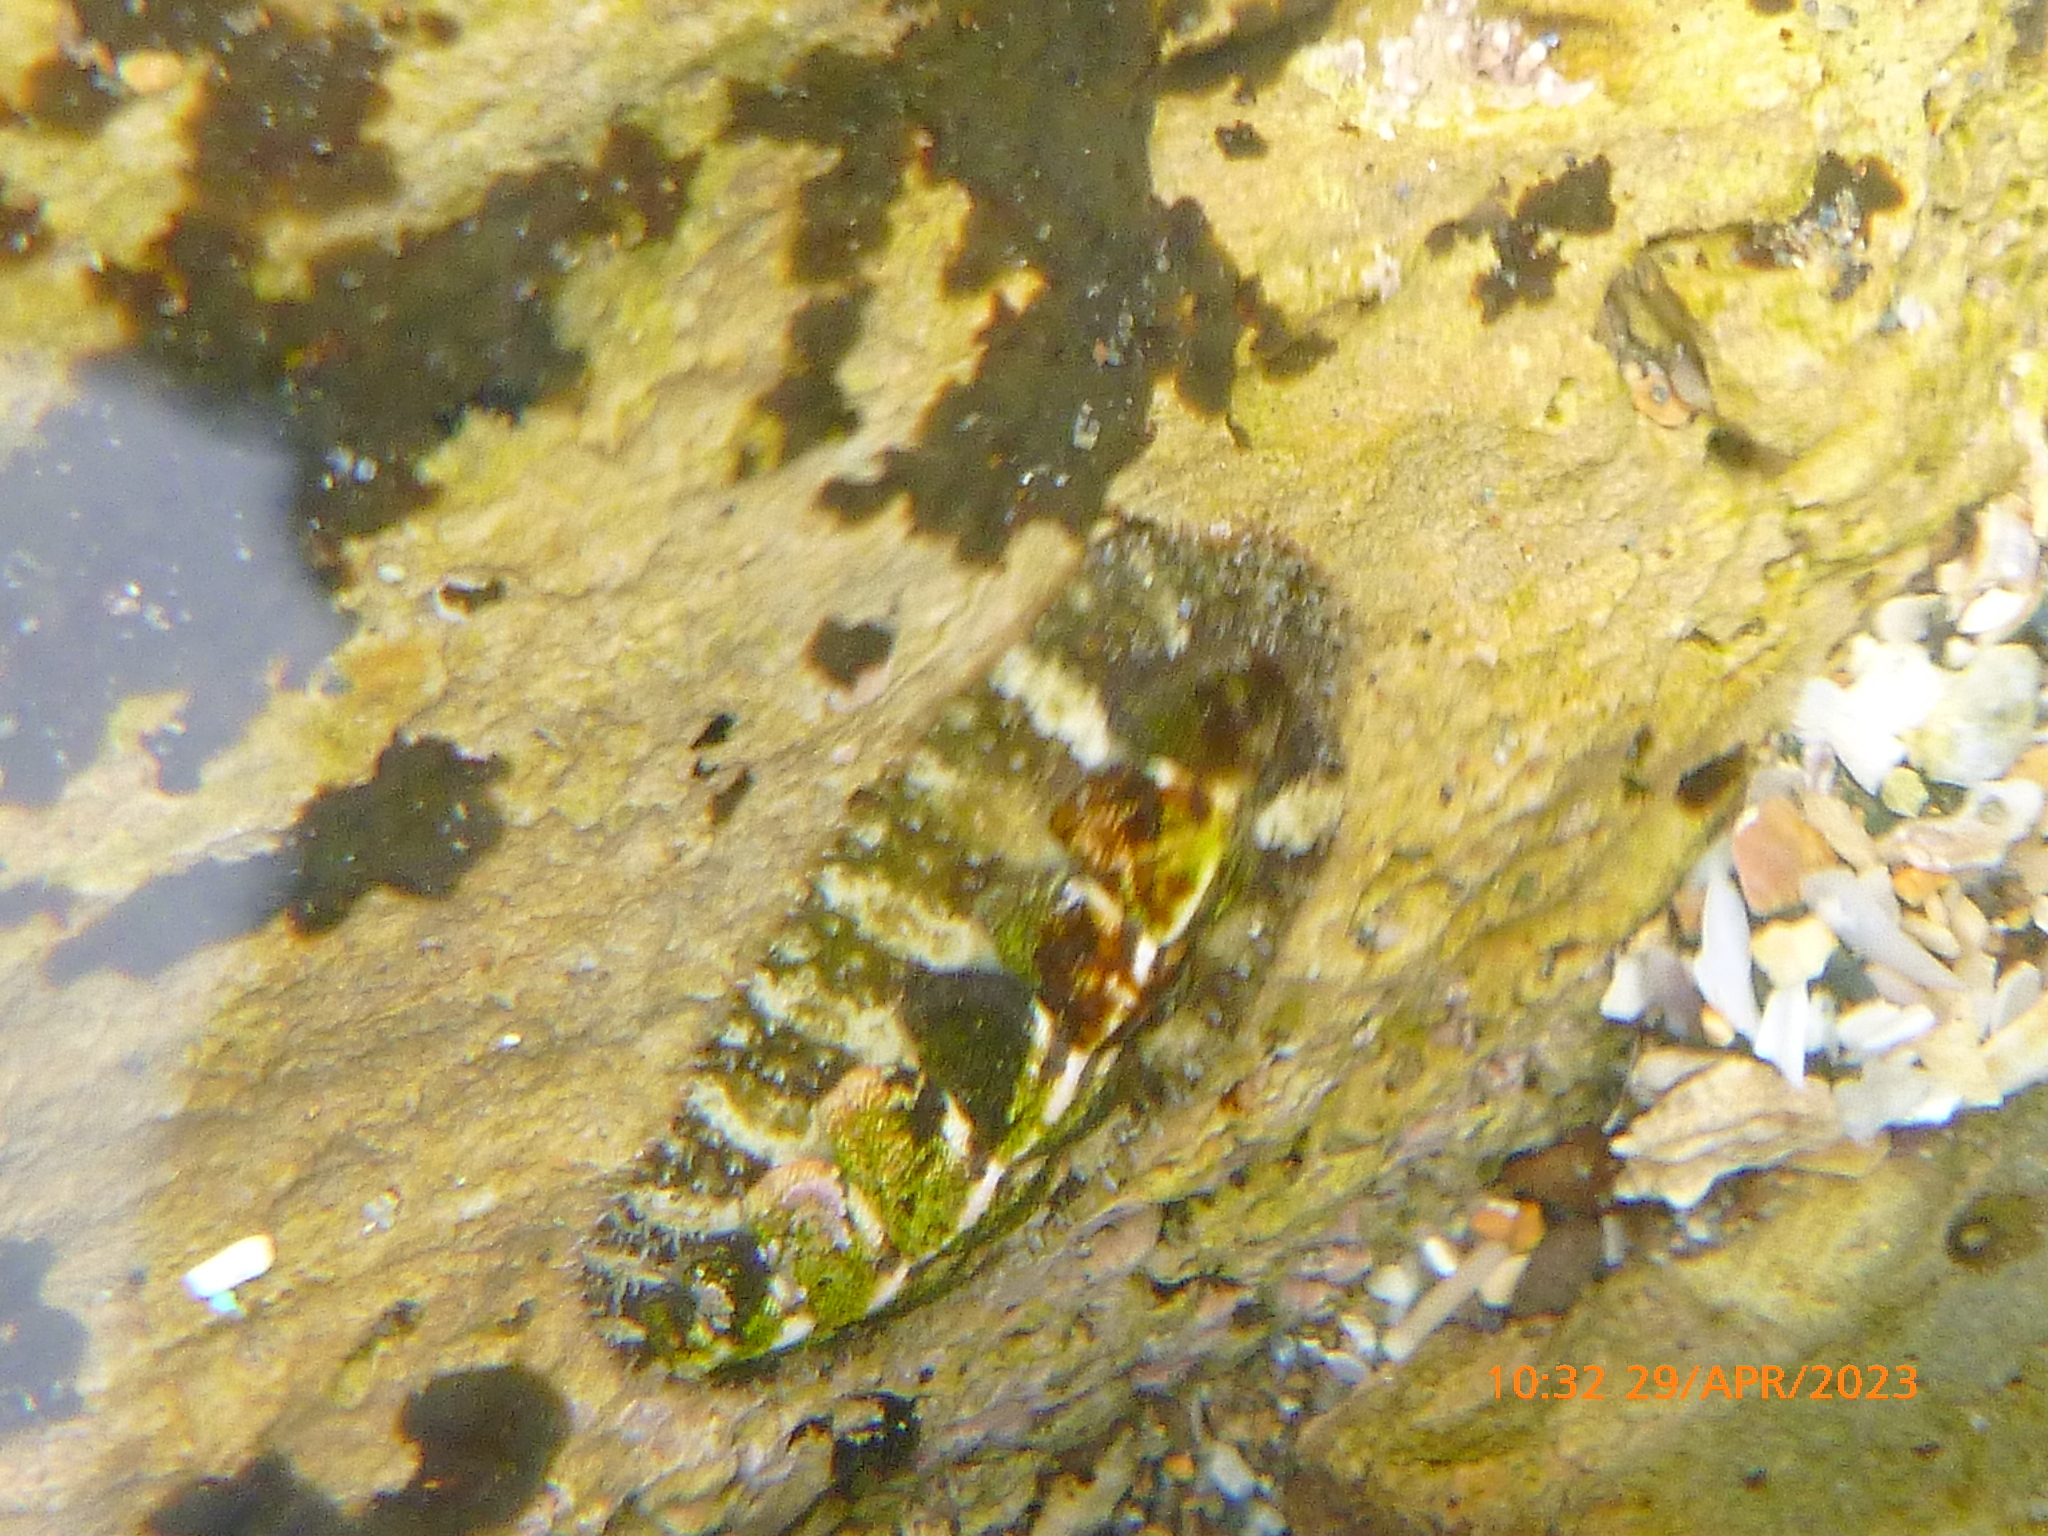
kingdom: Animalia
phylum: Mollusca
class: Polyplacophora
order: Chitonida
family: Tonicellidae
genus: Nuttallina
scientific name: Nuttallina californica
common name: California nuttall chiton
